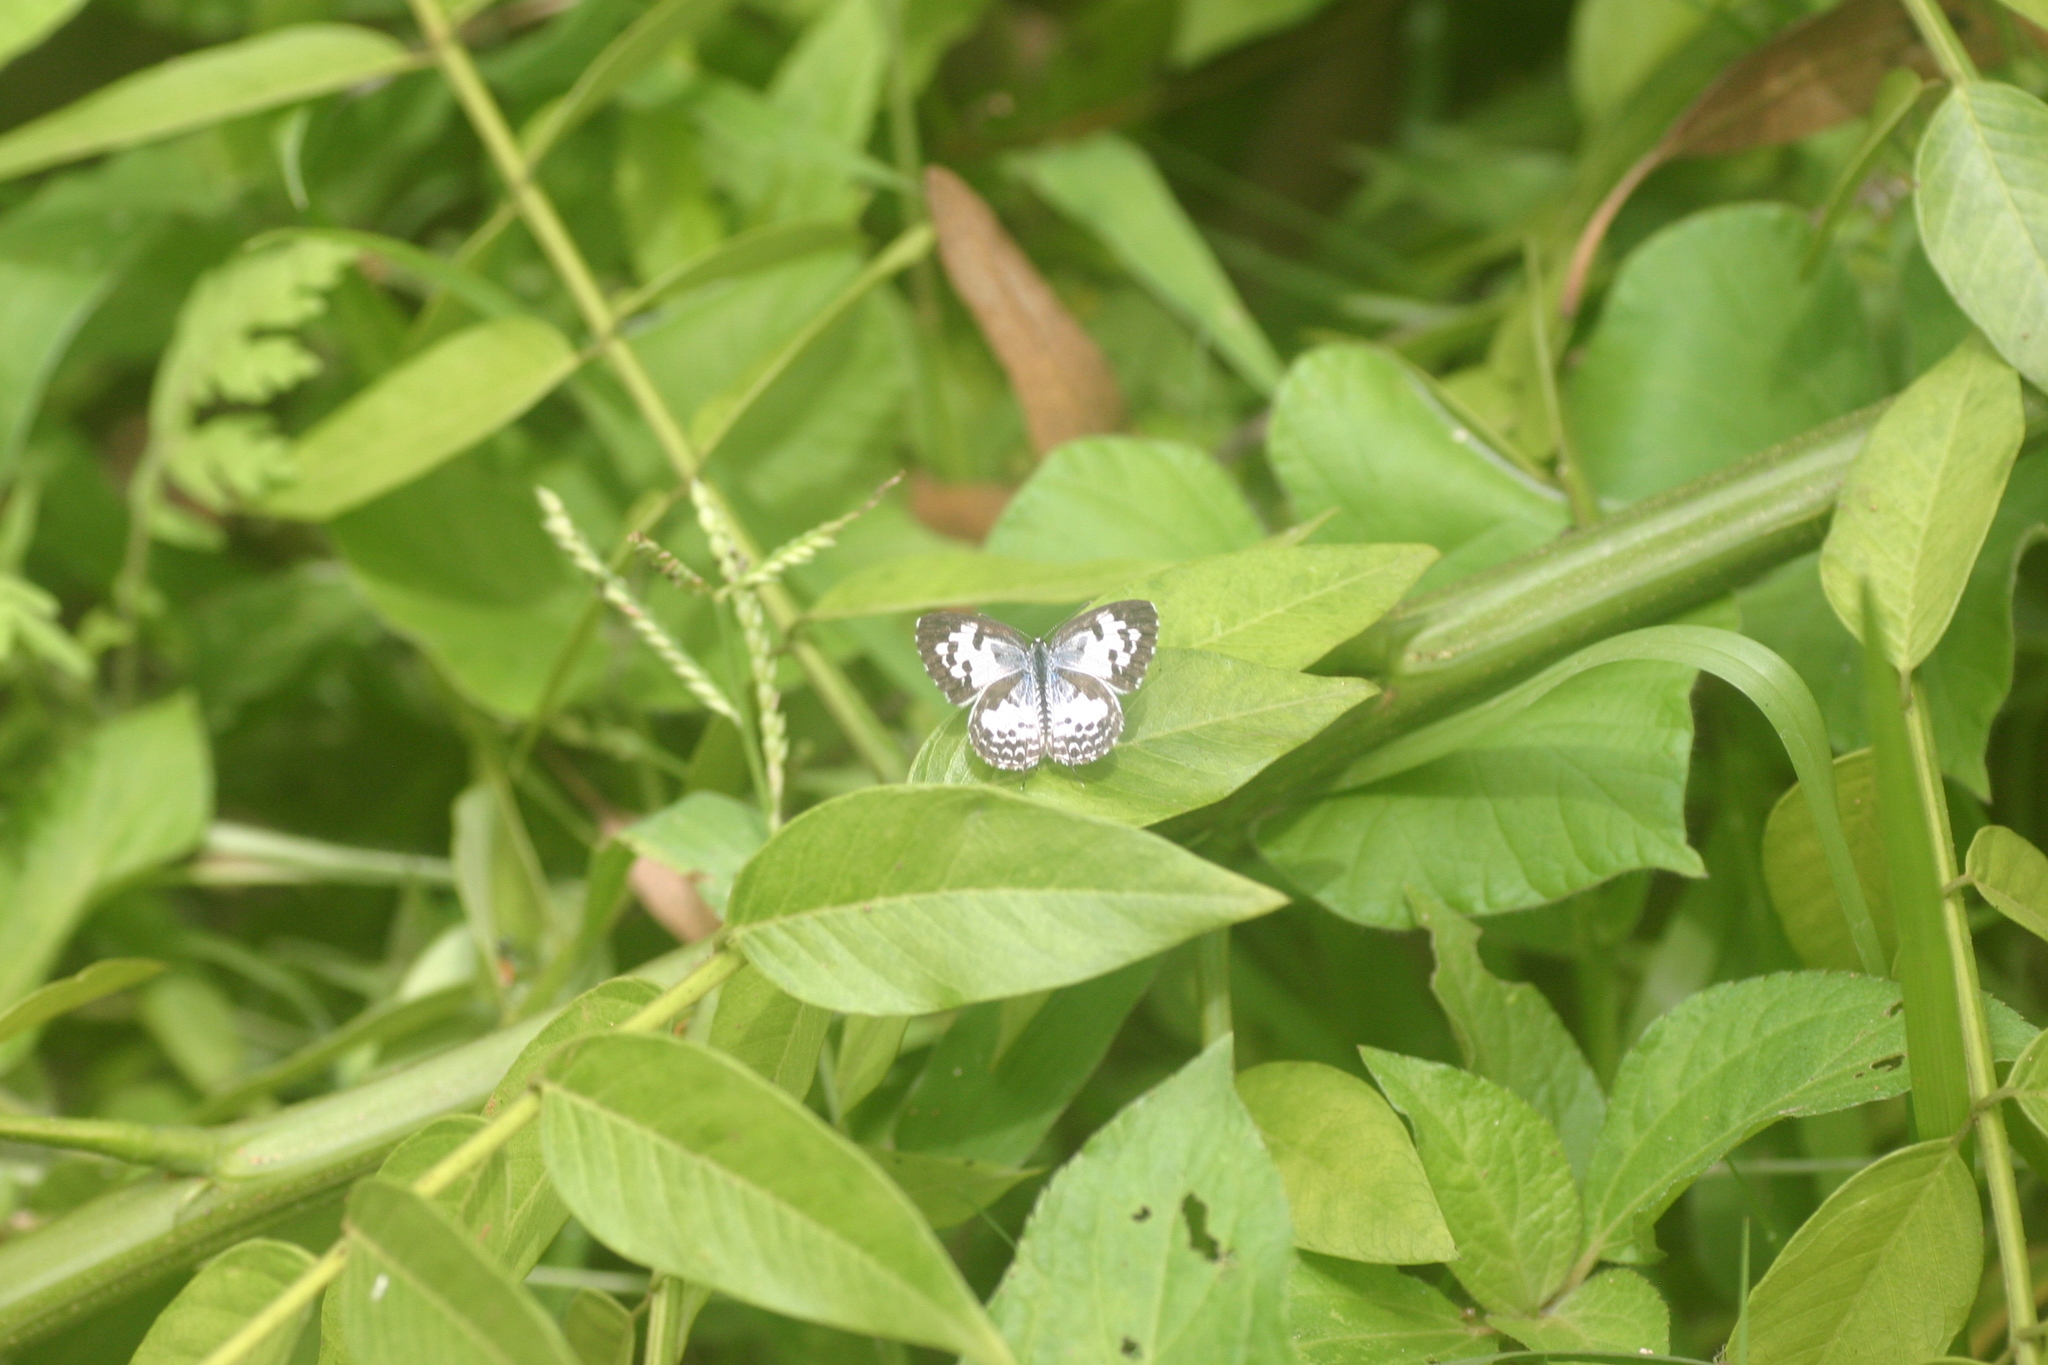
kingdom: Animalia
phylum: Arthropoda
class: Insecta
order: Lepidoptera
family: Lycaenidae
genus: Castalius
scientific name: Castalius rosimon
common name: Common pierrot
